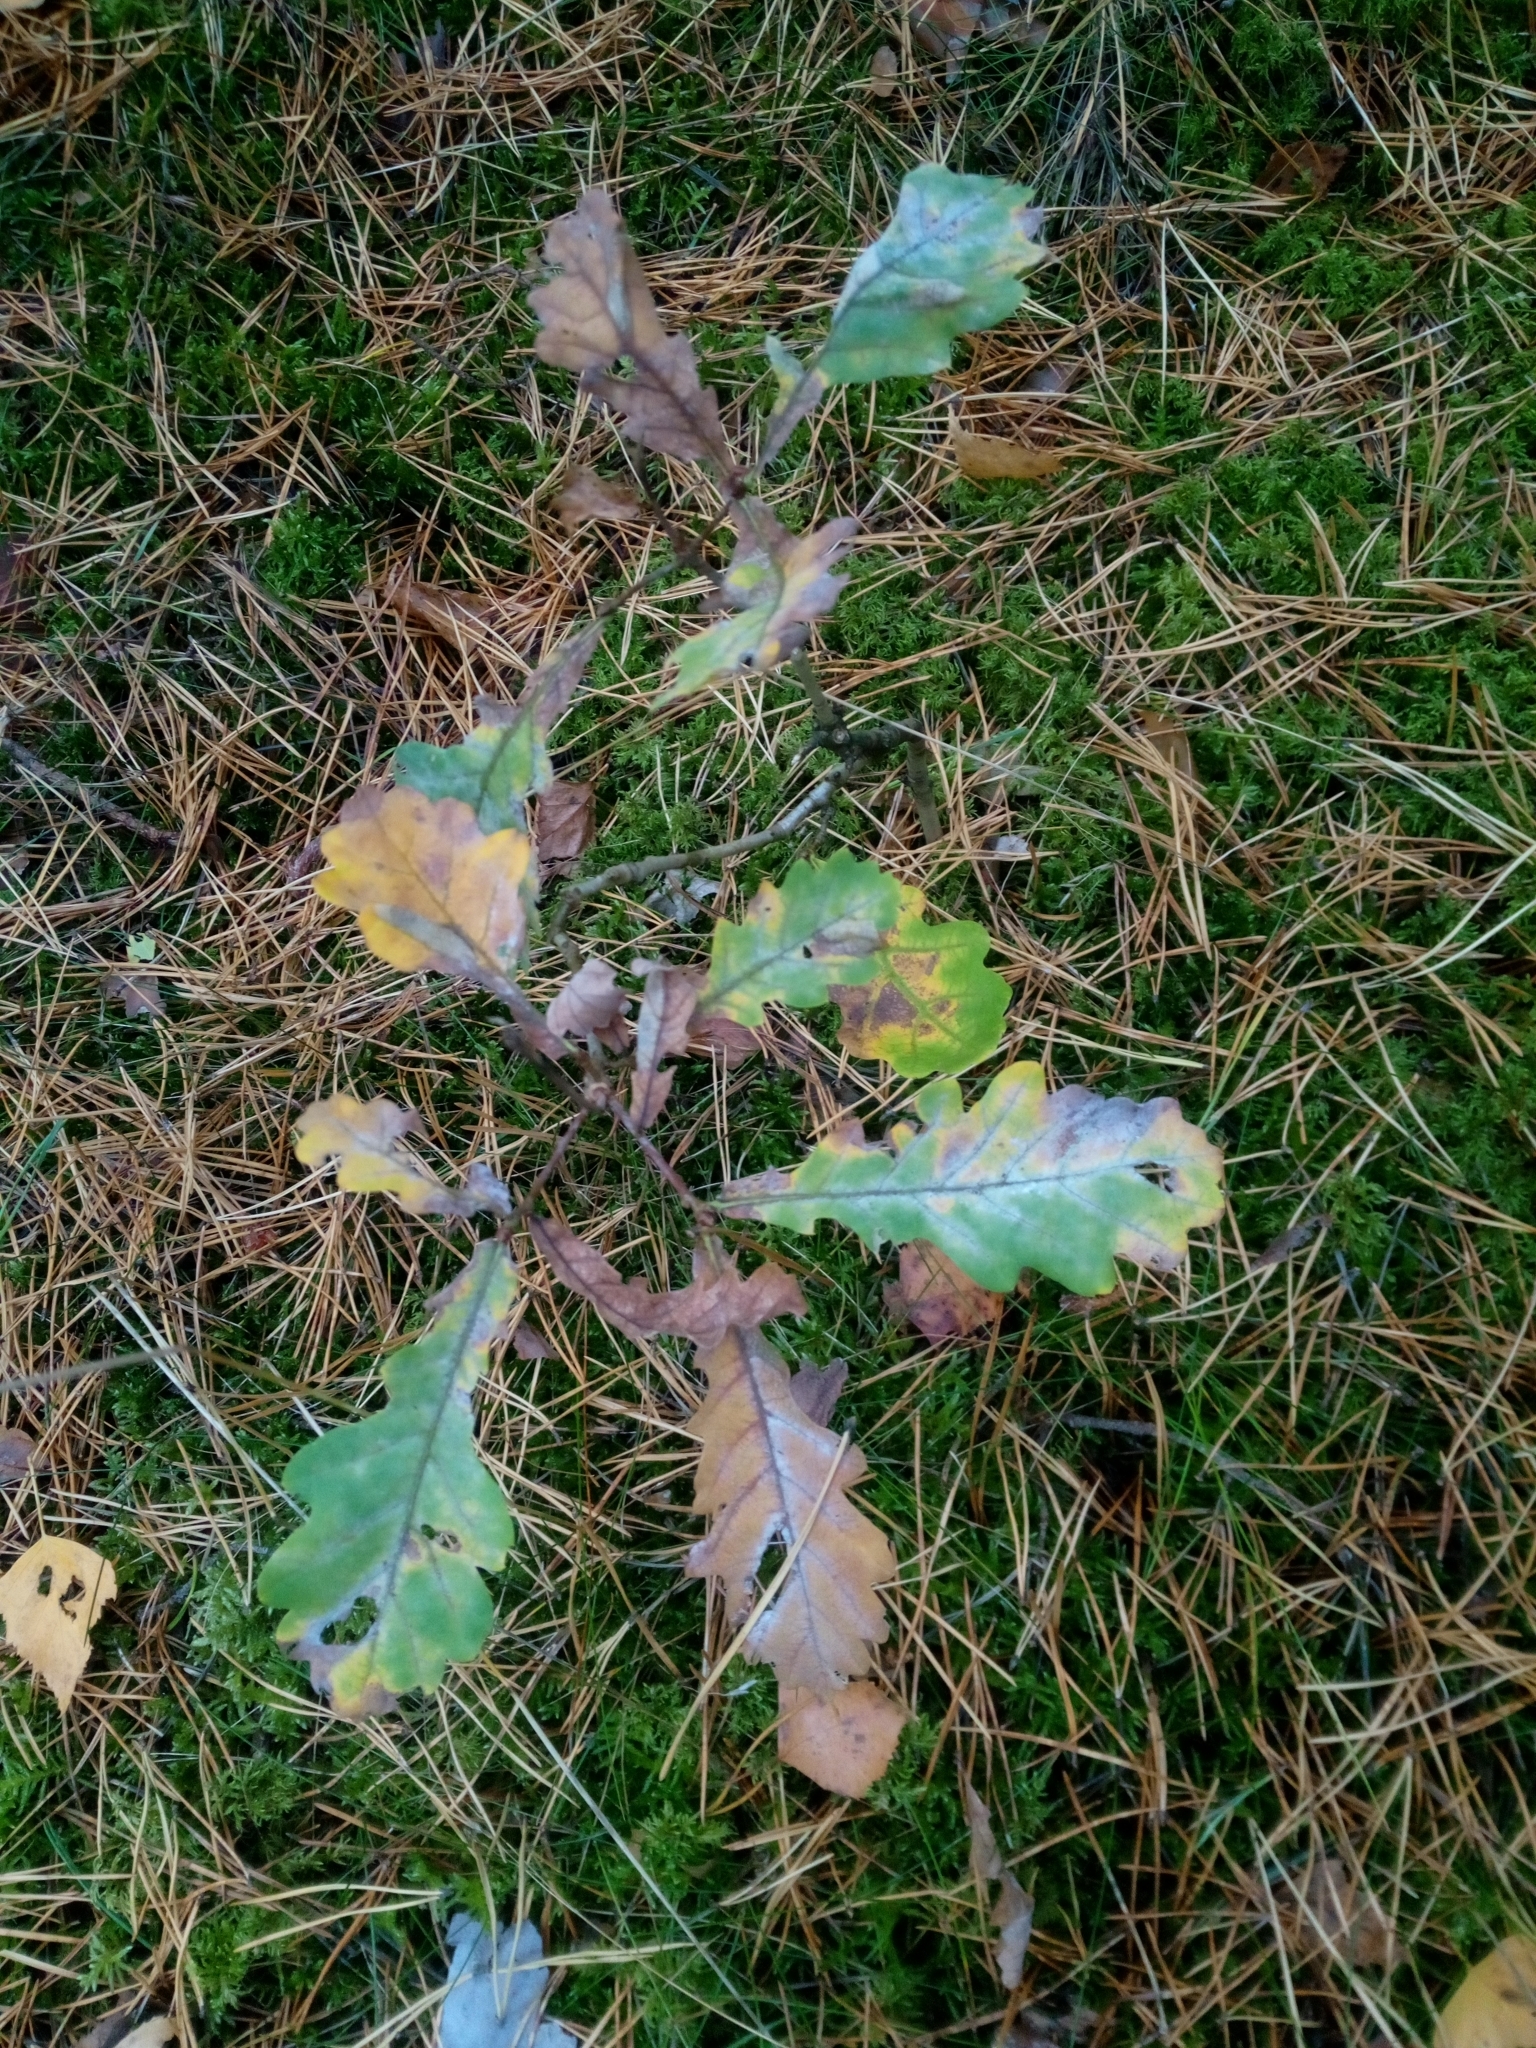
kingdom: Plantae
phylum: Tracheophyta
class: Magnoliopsida
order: Fagales
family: Fagaceae
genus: Quercus
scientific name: Quercus robur
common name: Pedunculate oak
